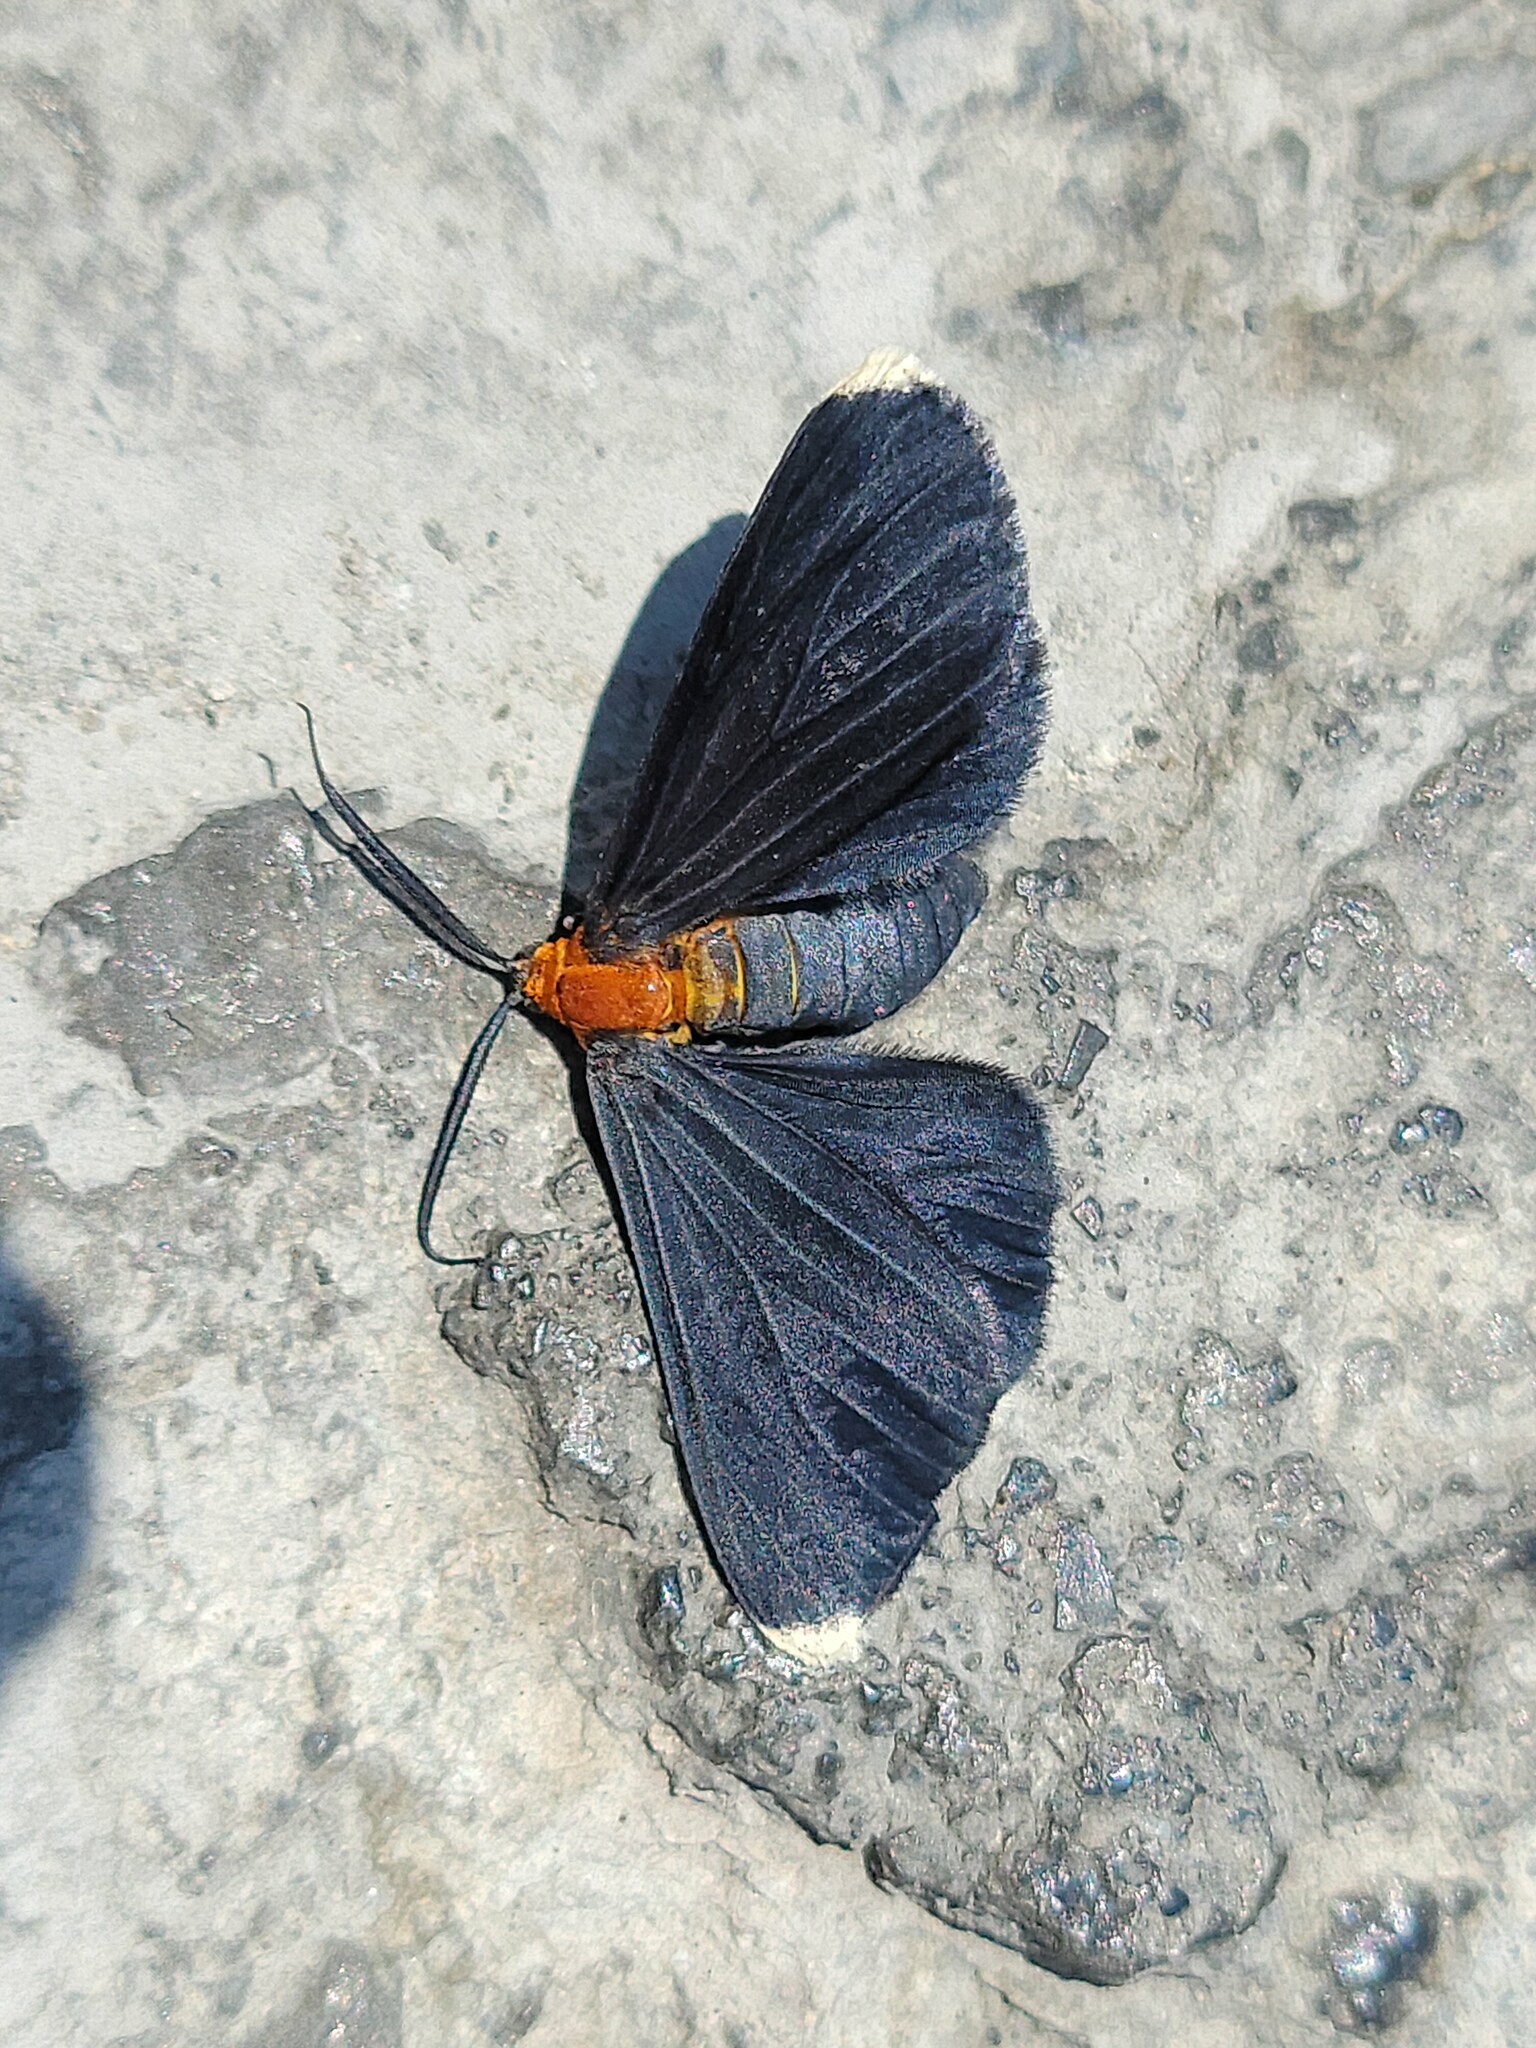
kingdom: Animalia
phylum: Arthropoda
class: Insecta
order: Lepidoptera
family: Geometridae
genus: Melanchroia
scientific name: Melanchroia chephise
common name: White-tipped black
